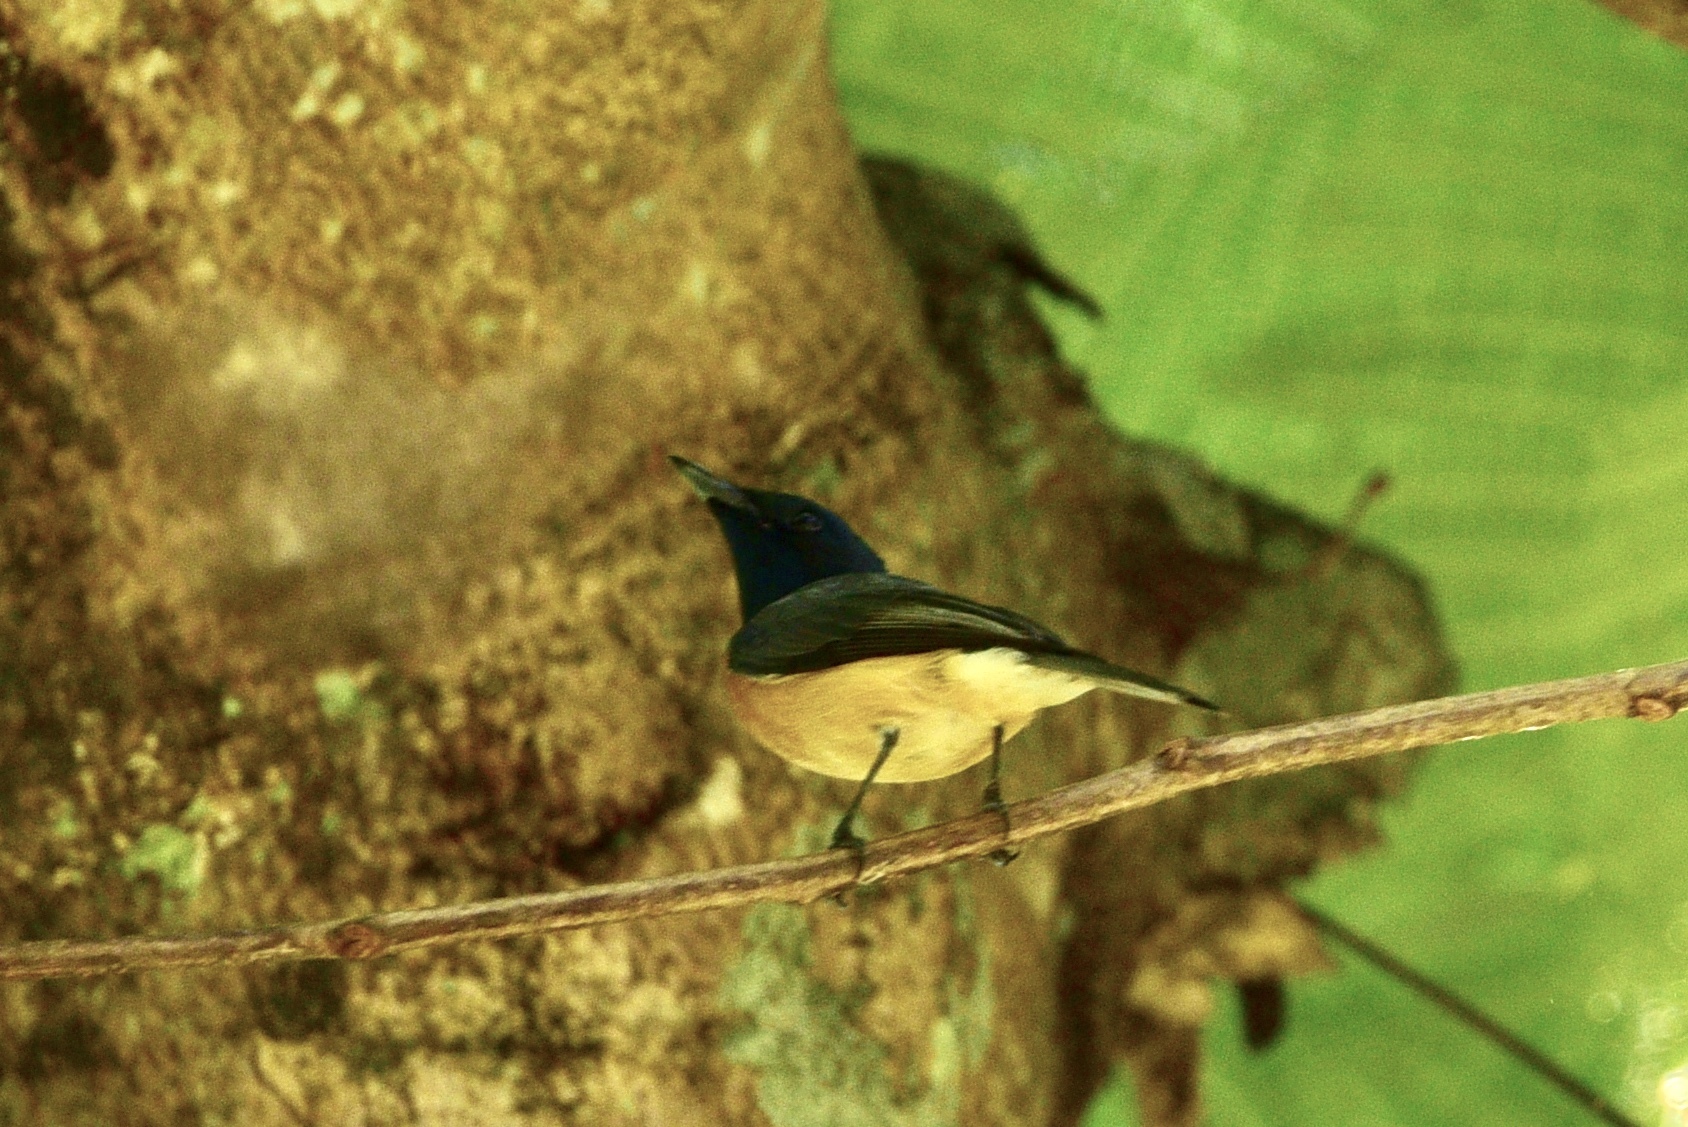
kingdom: Animalia
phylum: Chordata
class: Aves
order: Passeriformes
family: Monarchidae
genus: Myiagra
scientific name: Myiagra vanikorensis
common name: Vanikoro flycatcher
